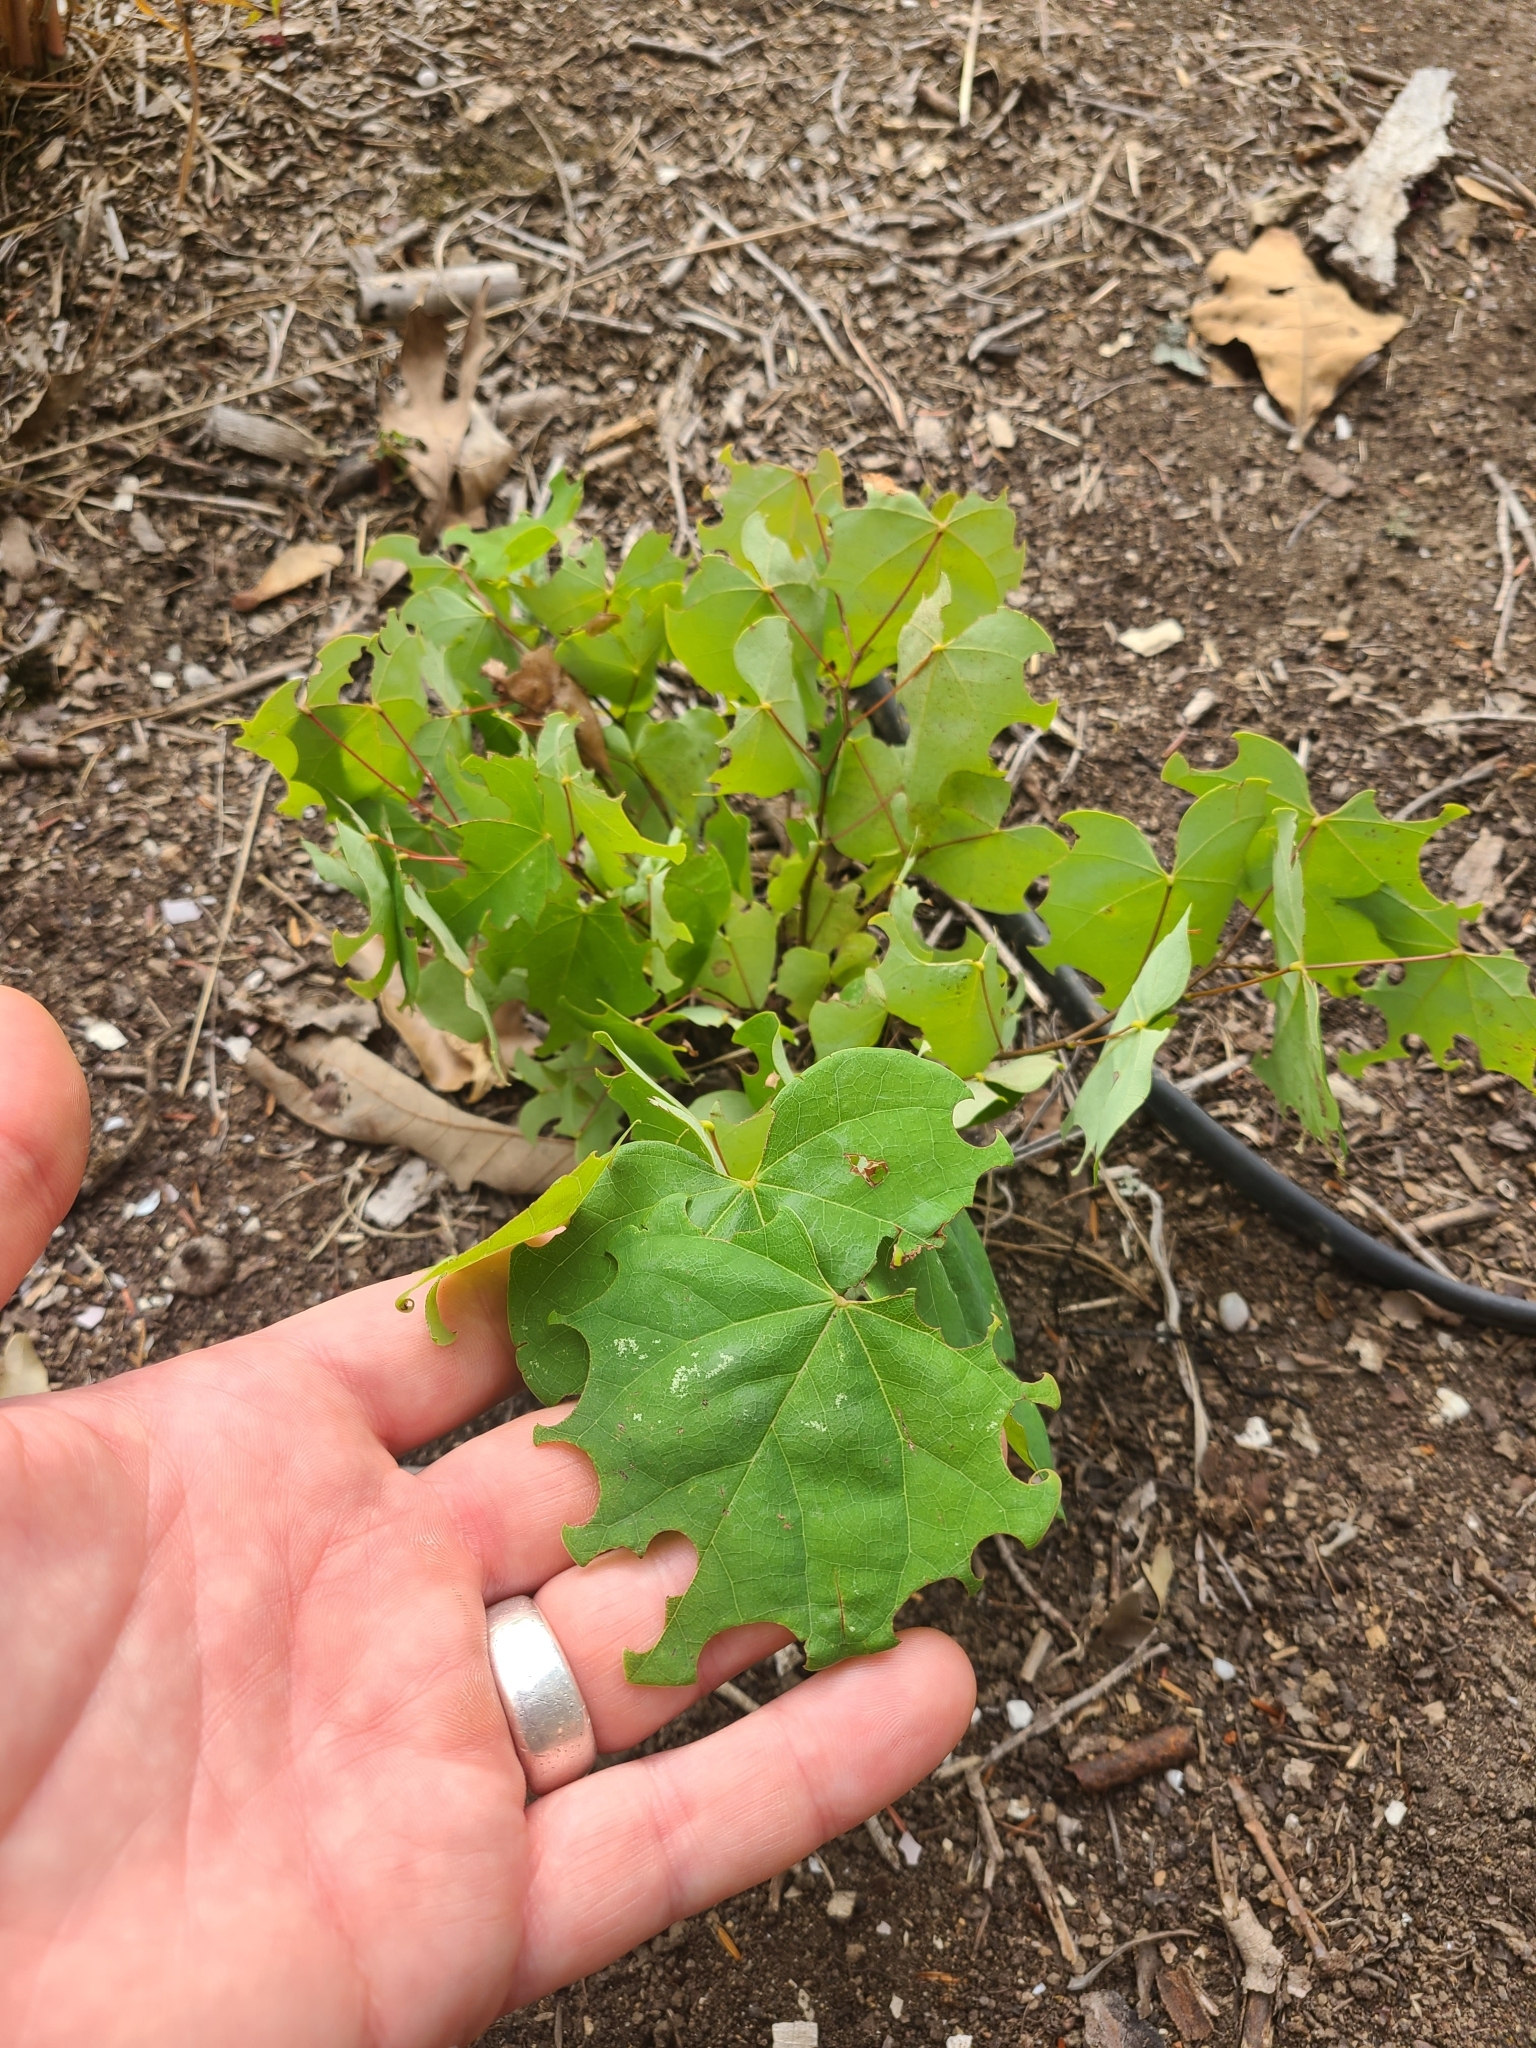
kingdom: Plantae
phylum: Tracheophyta
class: Magnoliopsida
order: Fabales
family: Fabaceae
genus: Cercis
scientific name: Cercis canadensis
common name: Eastern redbud
